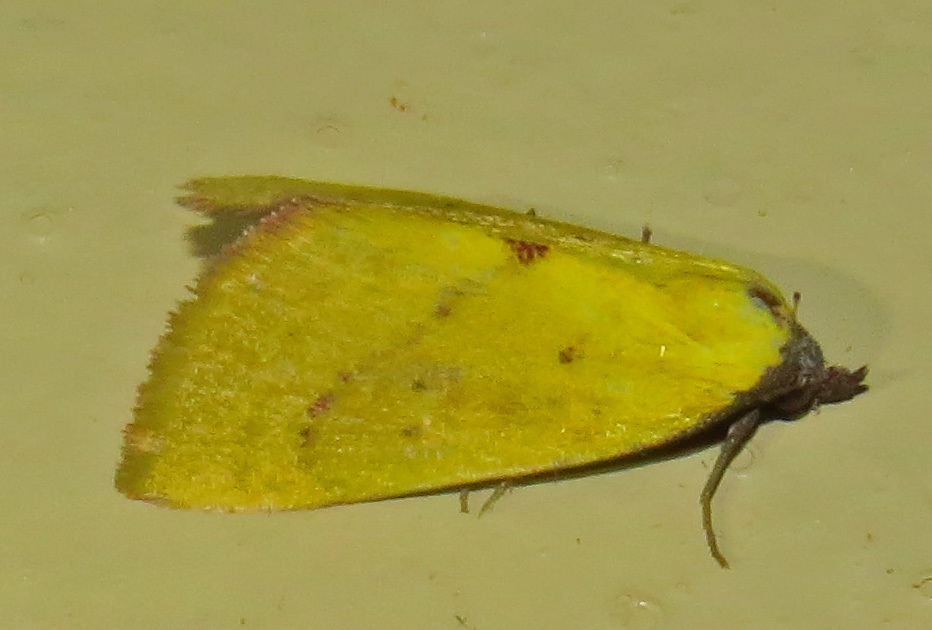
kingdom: Animalia
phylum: Arthropoda
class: Insecta
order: Lepidoptera
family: Erebidae
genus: Phytometra
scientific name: Phytometra orgiae
